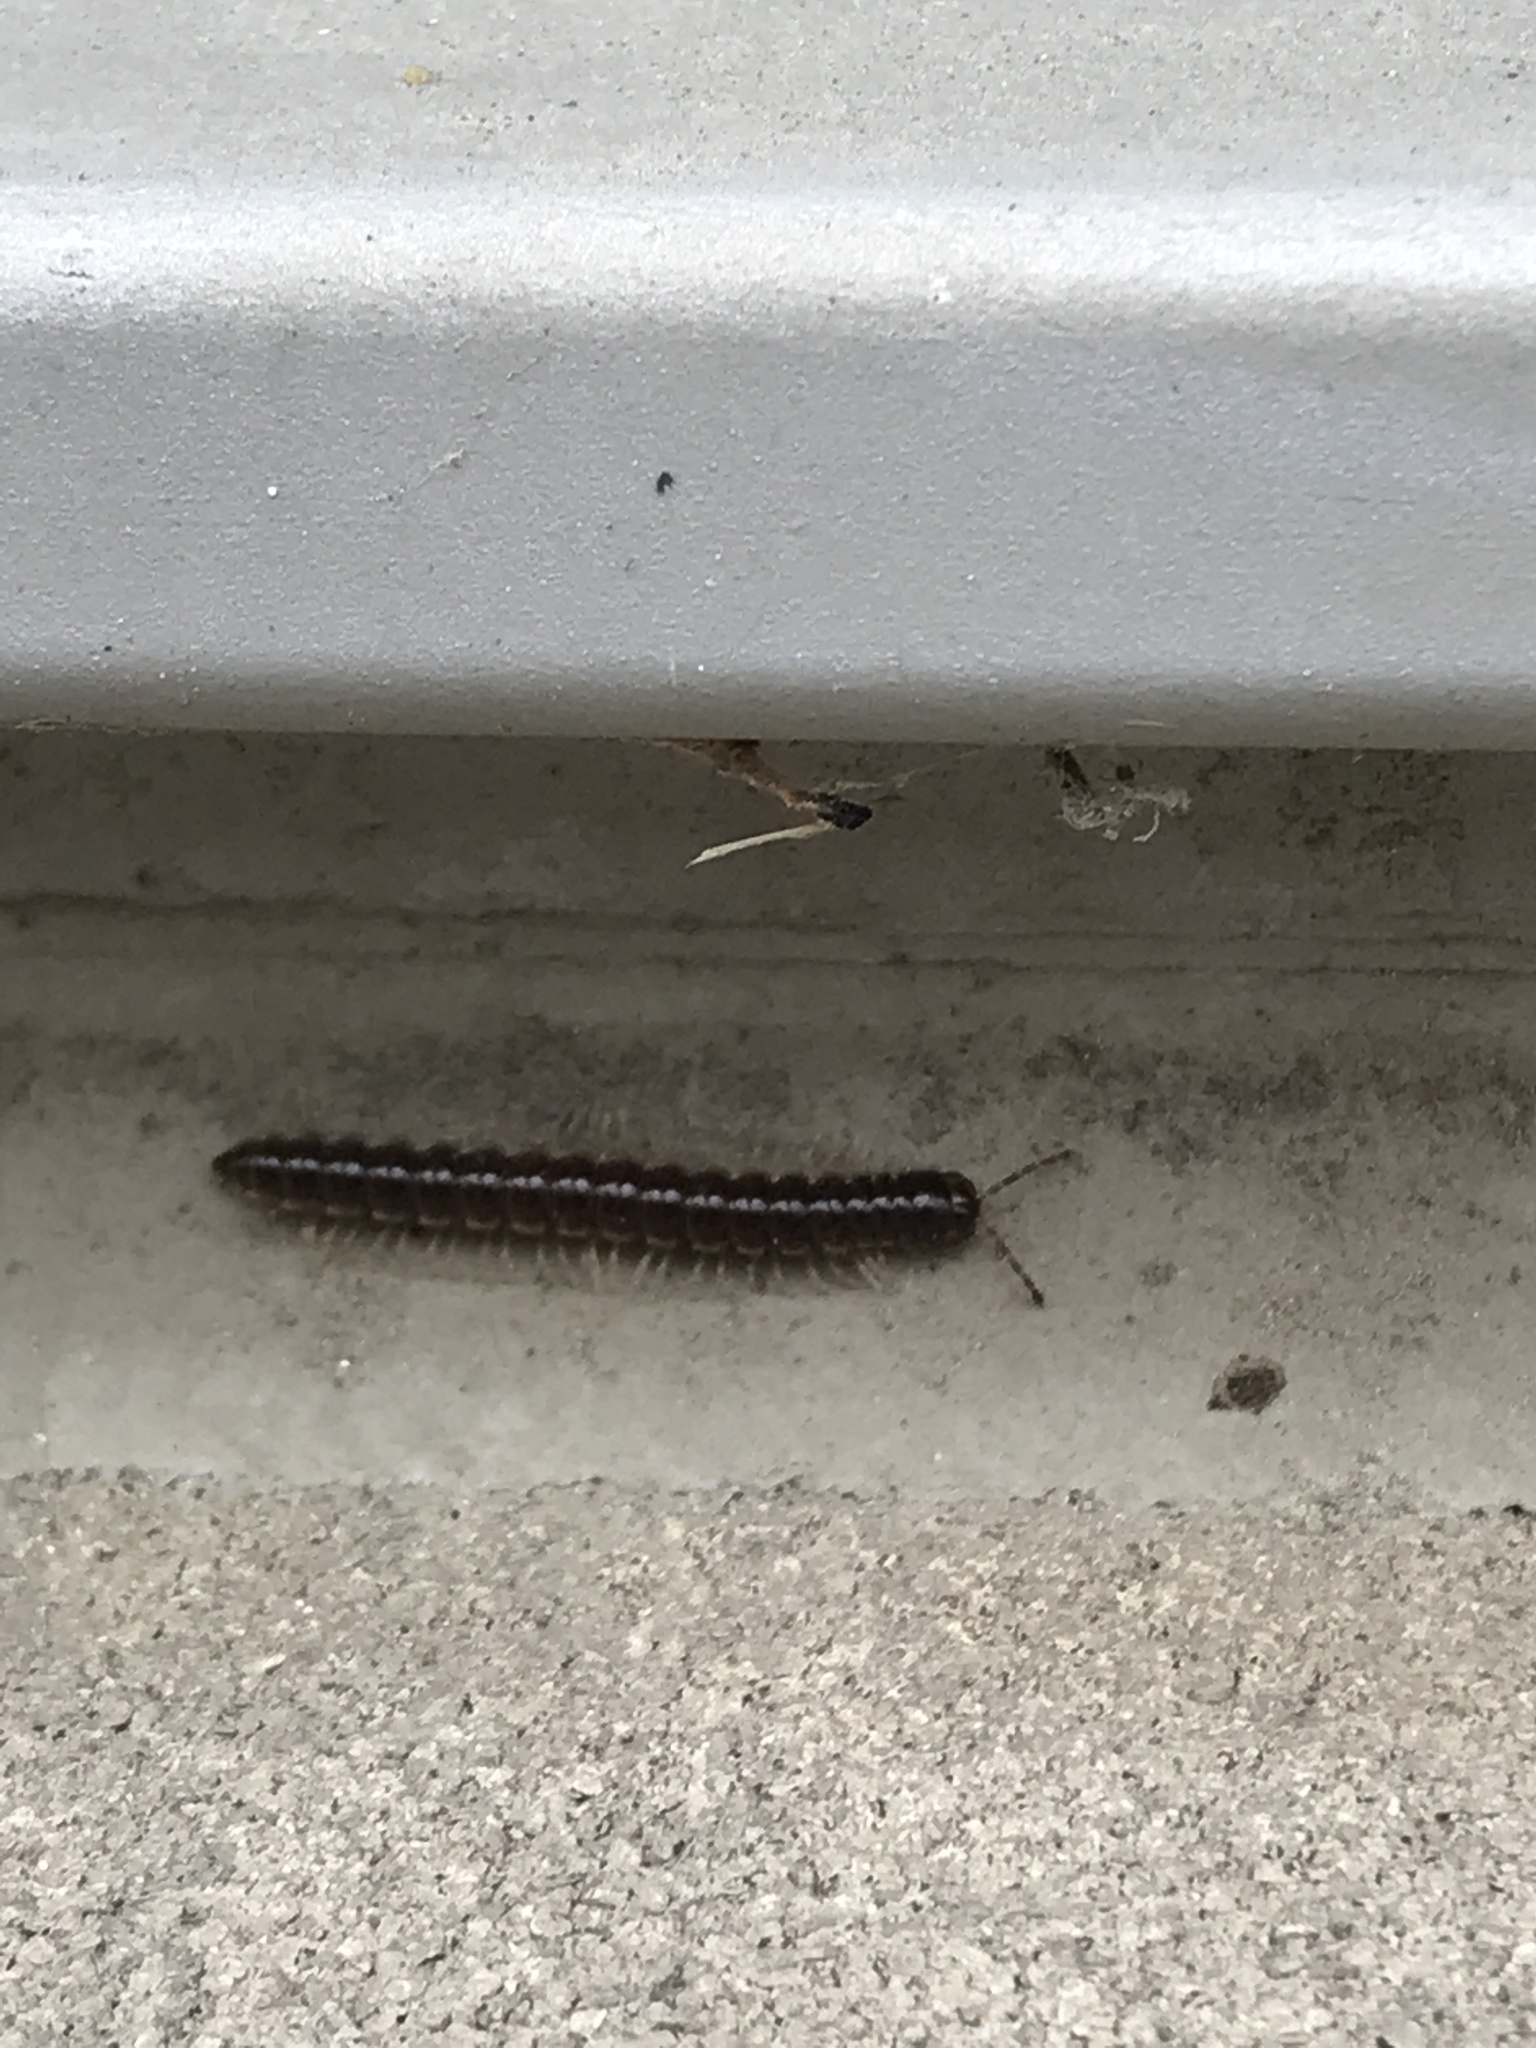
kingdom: Animalia
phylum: Arthropoda
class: Diplopoda
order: Polydesmida
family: Paradoxosomatidae
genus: Oxidus
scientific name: Oxidus gracilis
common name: Greenhouse millipede
